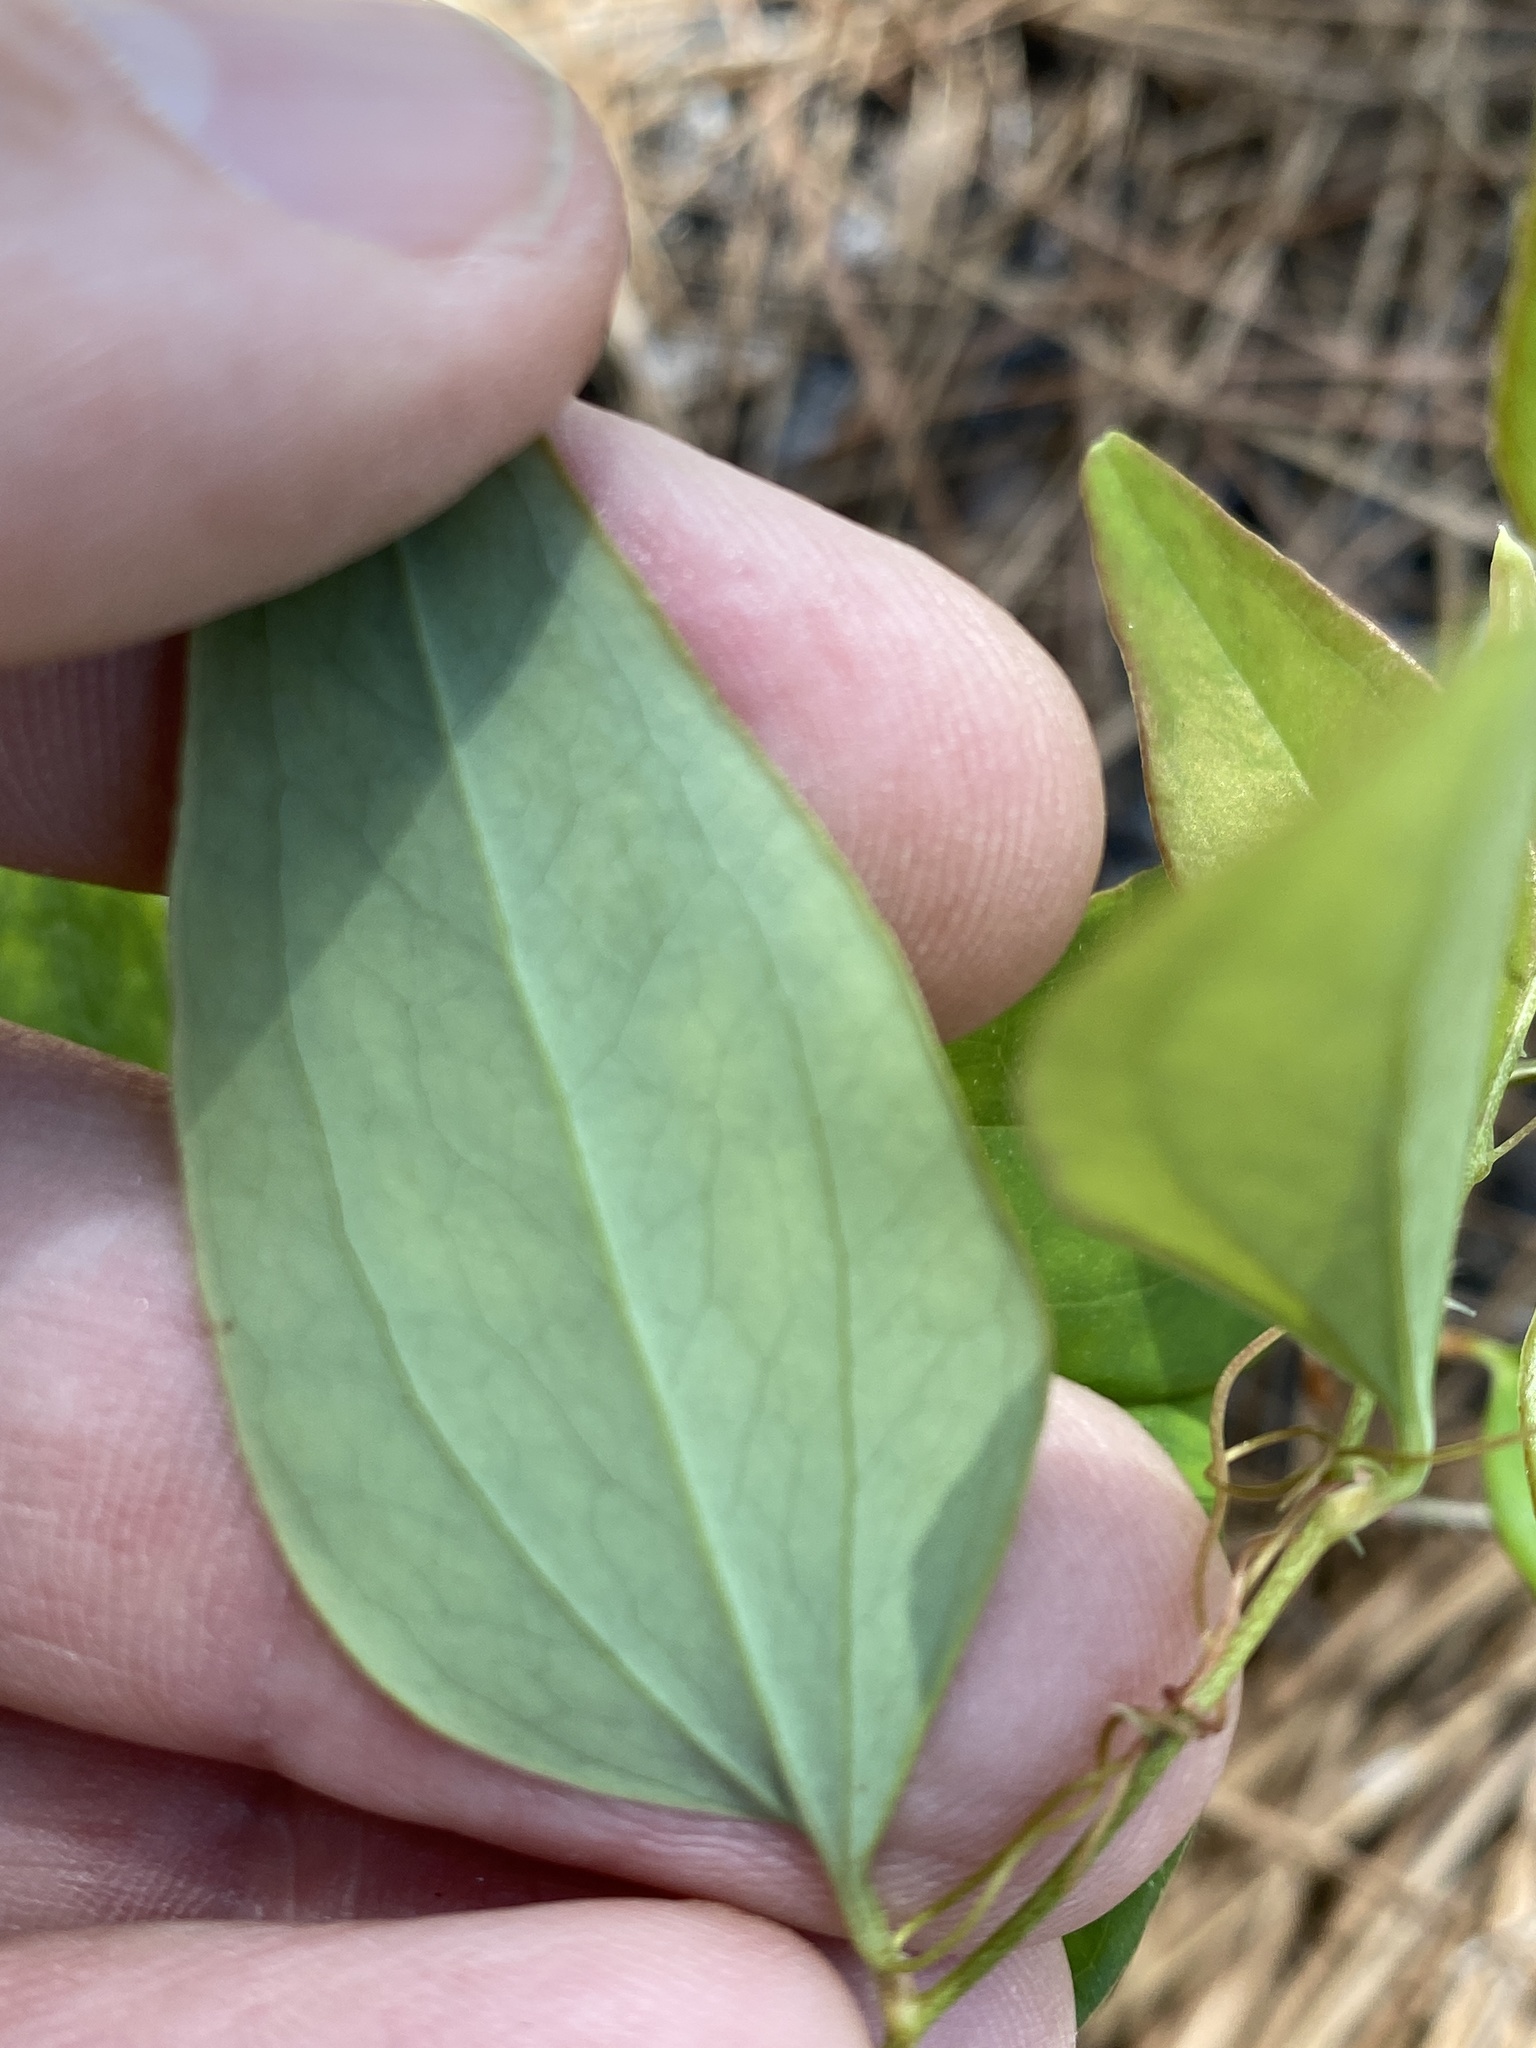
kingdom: Plantae
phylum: Tracheophyta
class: Liliopsida
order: Liliales
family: Smilacaceae
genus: Smilax
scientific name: Smilax glauca
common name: Cat greenbrier
